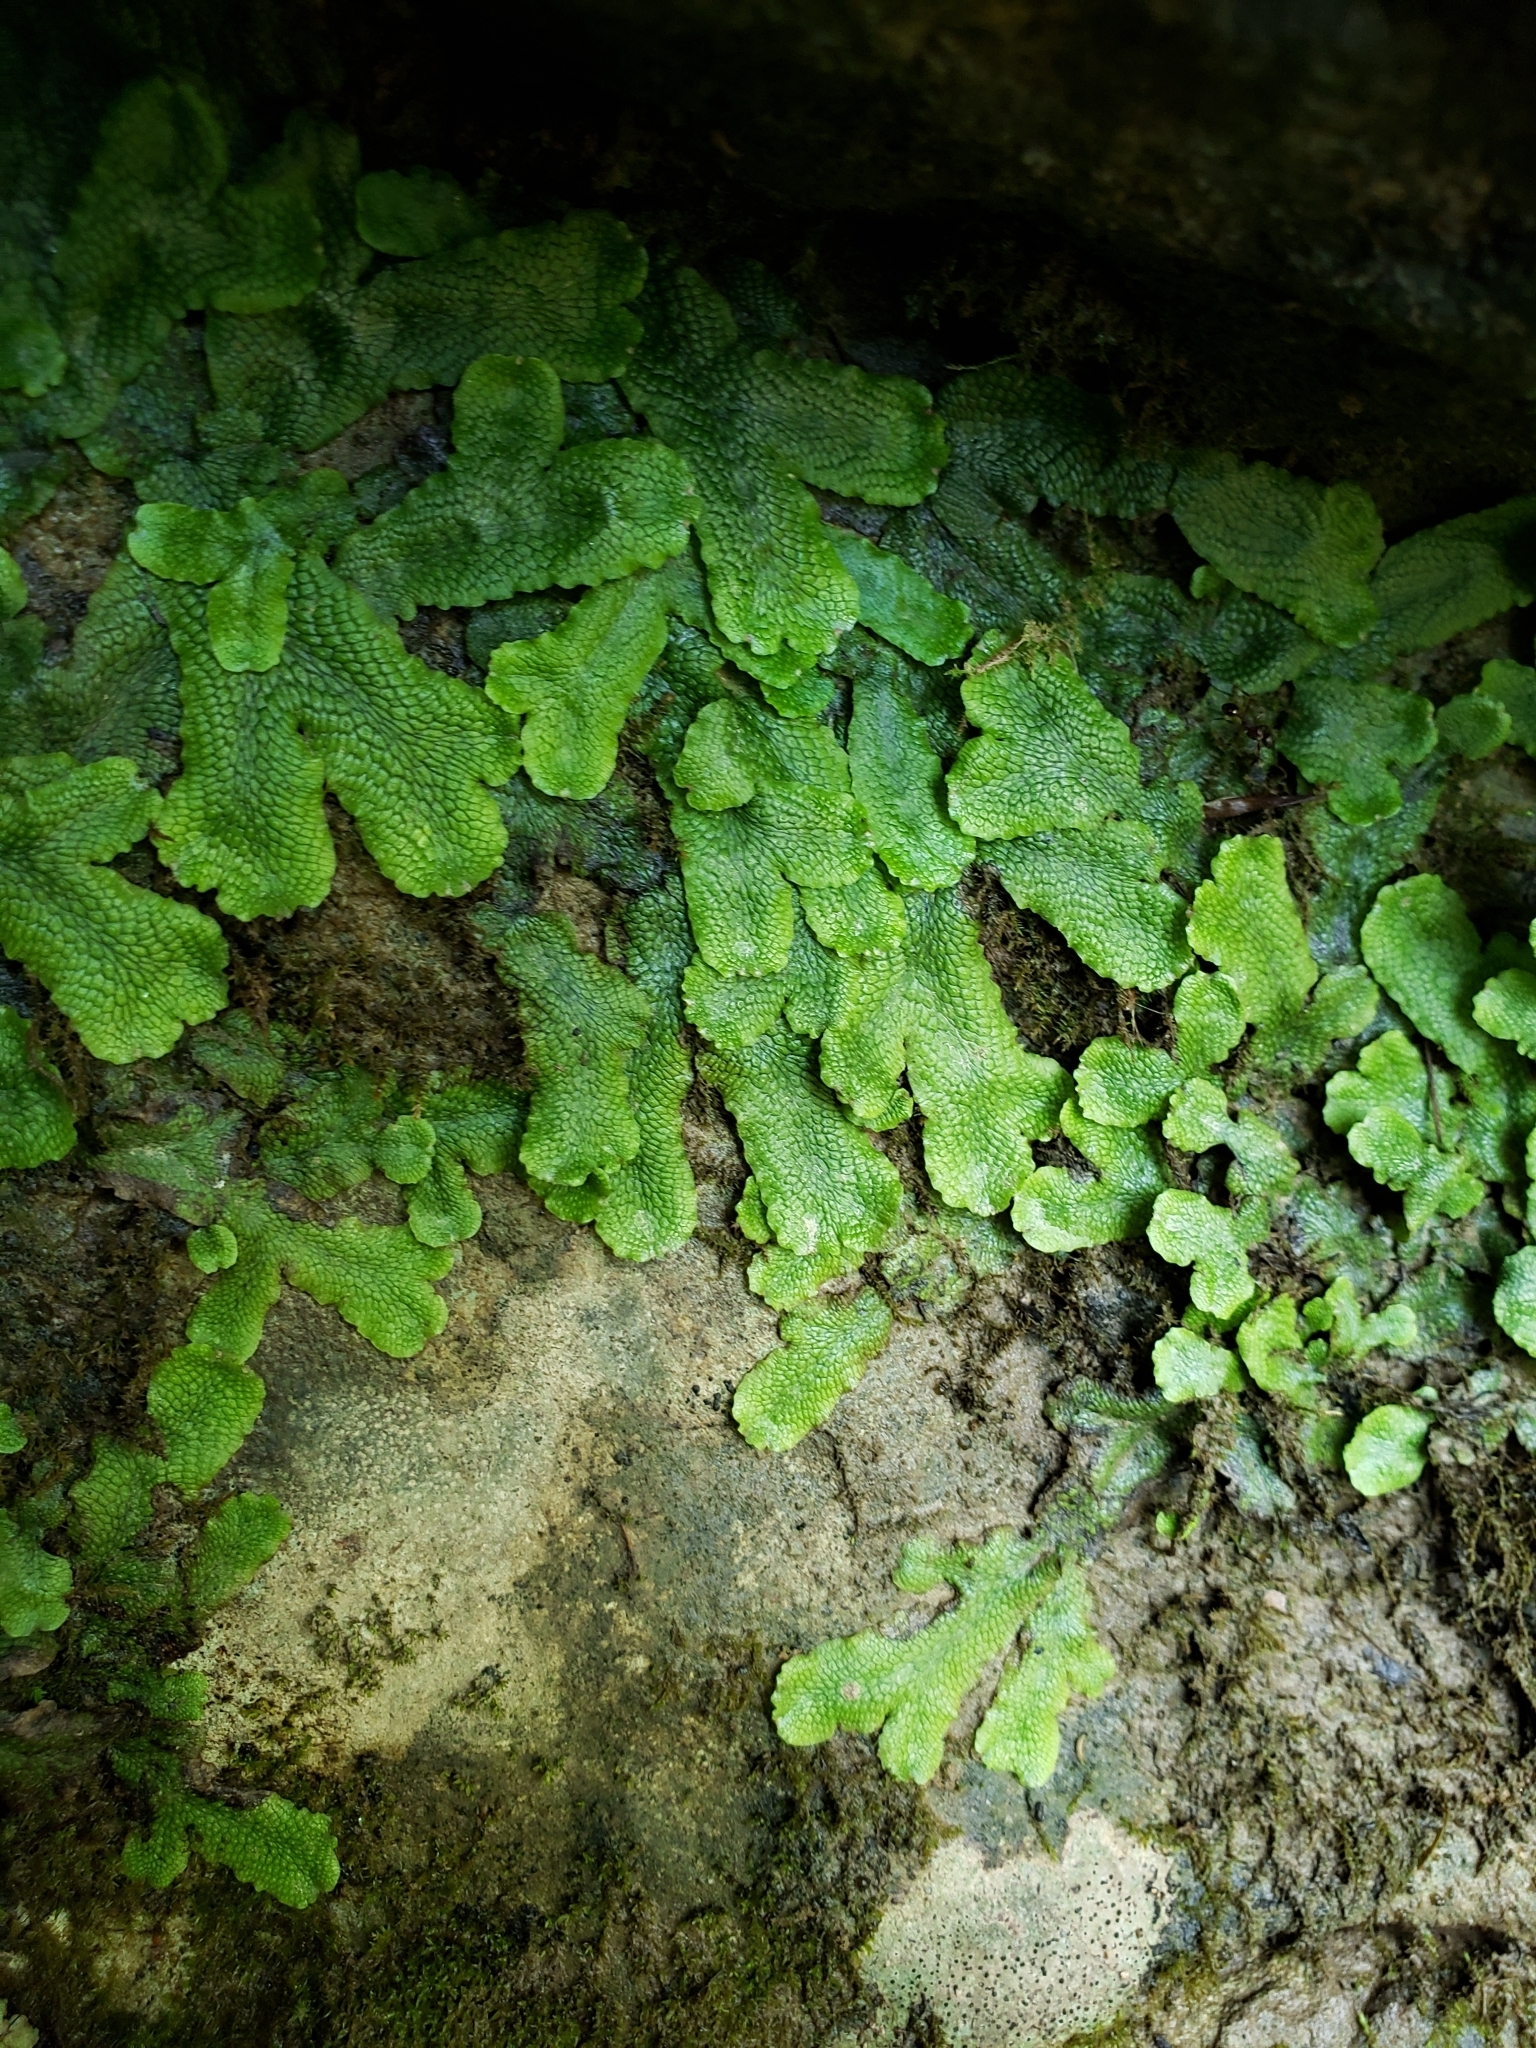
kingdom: Plantae
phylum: Marchantiophyta
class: Marchantiopsida
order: Marchantiales
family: Conocephalaceae
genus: Conocephalum
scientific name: Conocephalum salebrosum
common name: Cat-tongue liverwort
